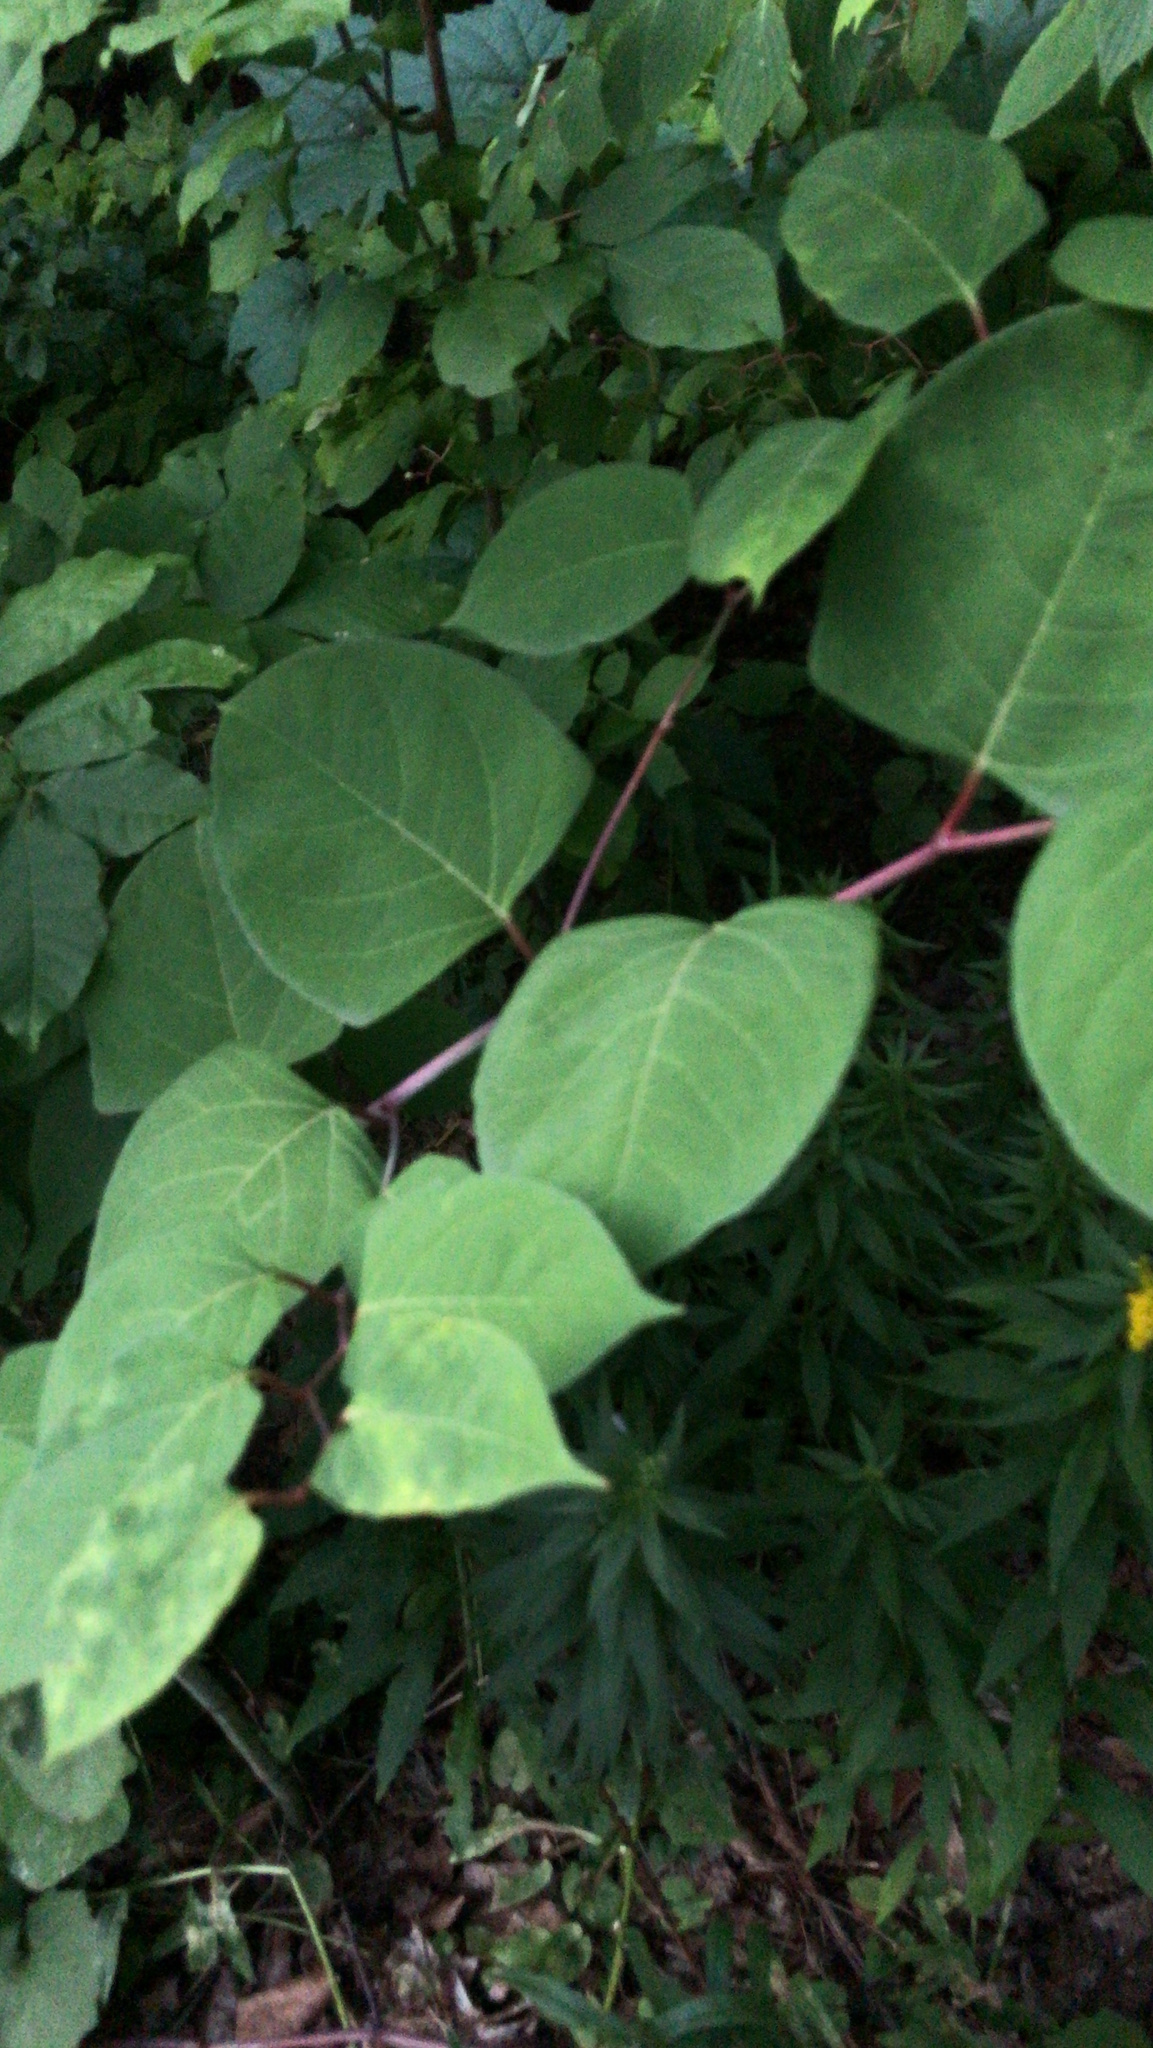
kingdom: Plantae
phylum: Tracheophyta
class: Magnoliopsida
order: Caryophyllales
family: Polygonaceae
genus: Reynoutria
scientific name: Reynoutria japonica
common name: Japanese knotweed
